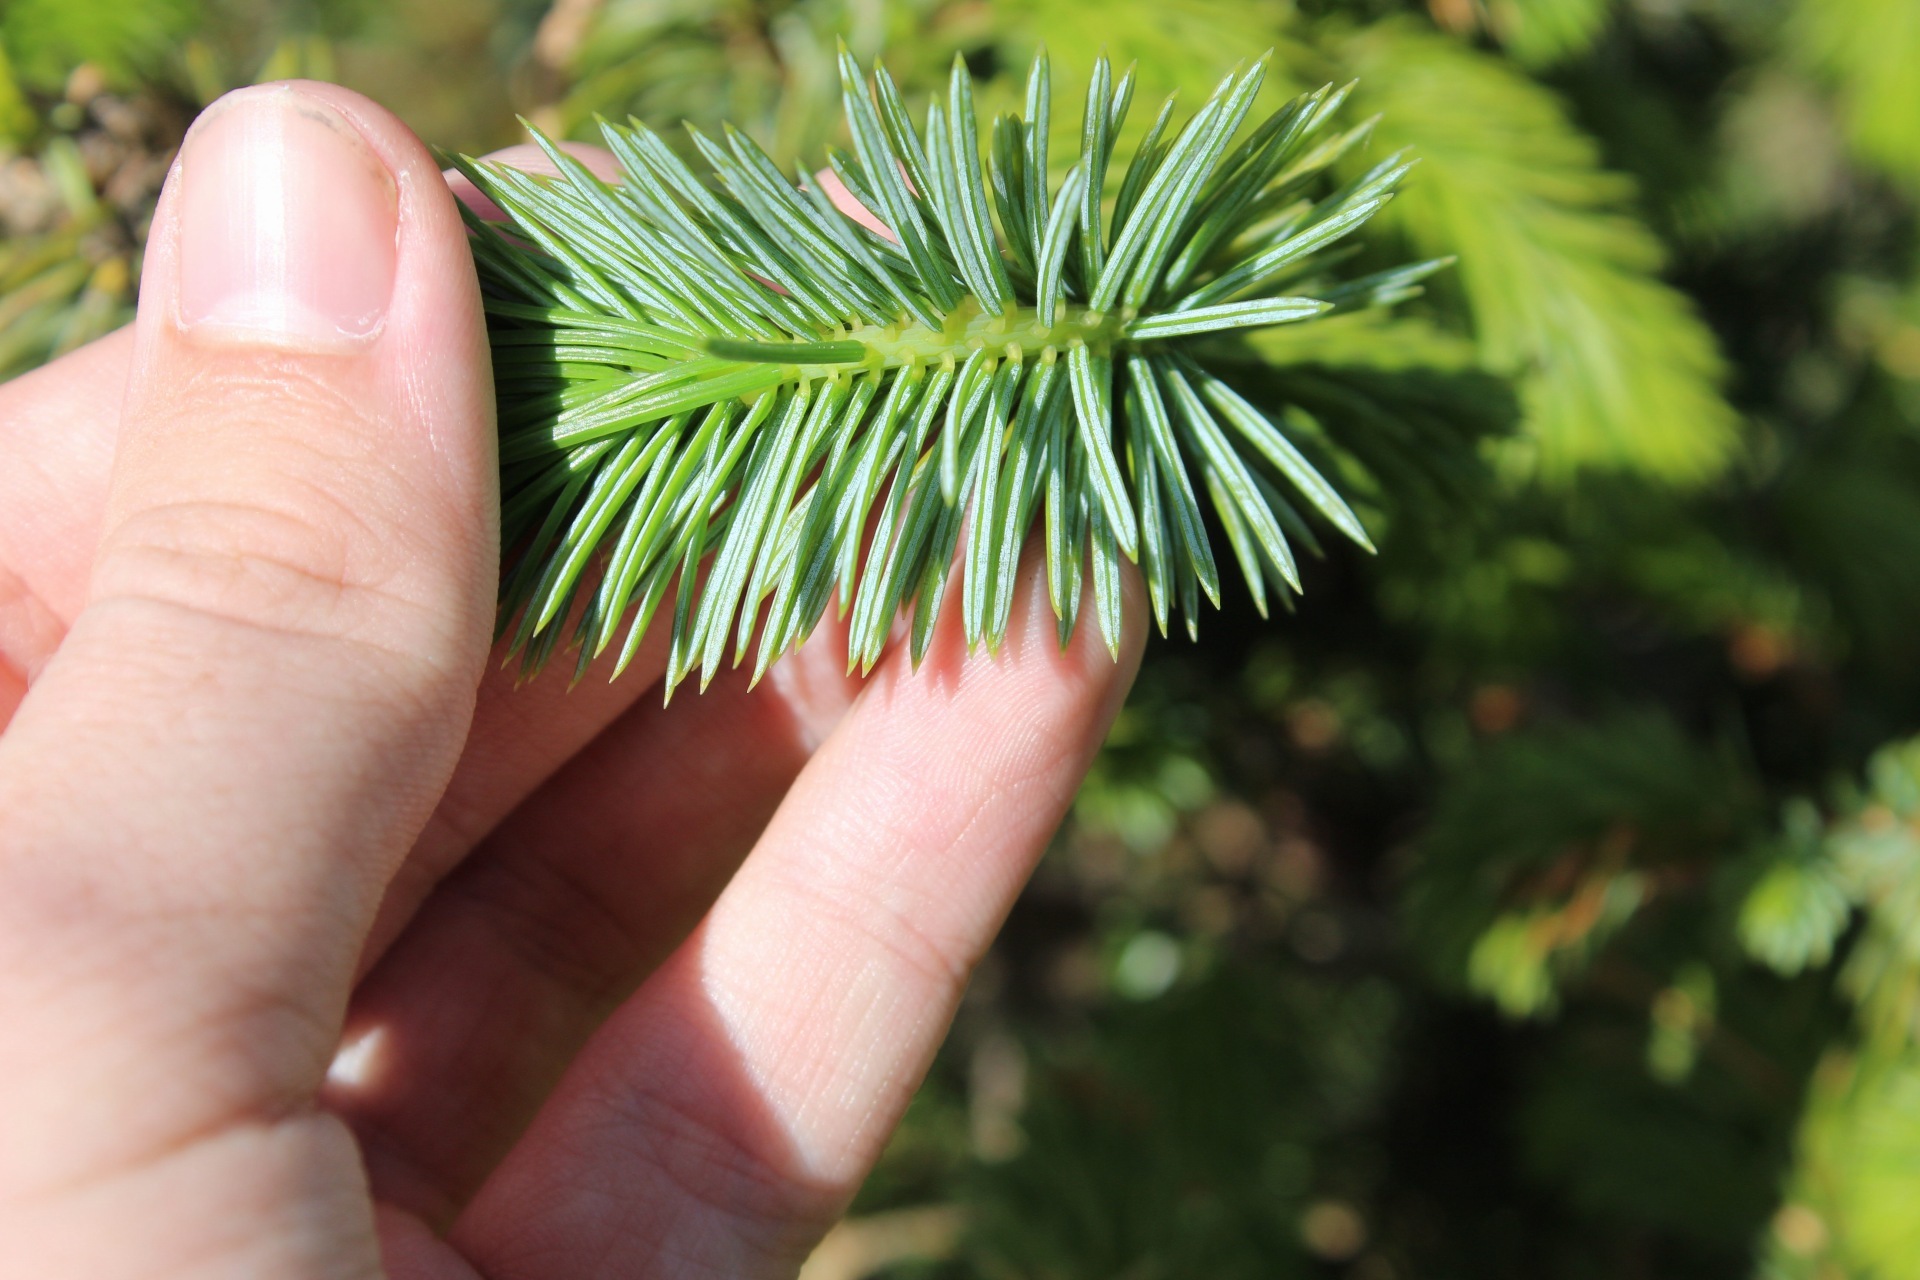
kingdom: Plantae
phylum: Tracheophyta
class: Pinopsida
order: Pinales
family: Pinaceae
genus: Picea
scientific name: Picea abies
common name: Norway spruce
